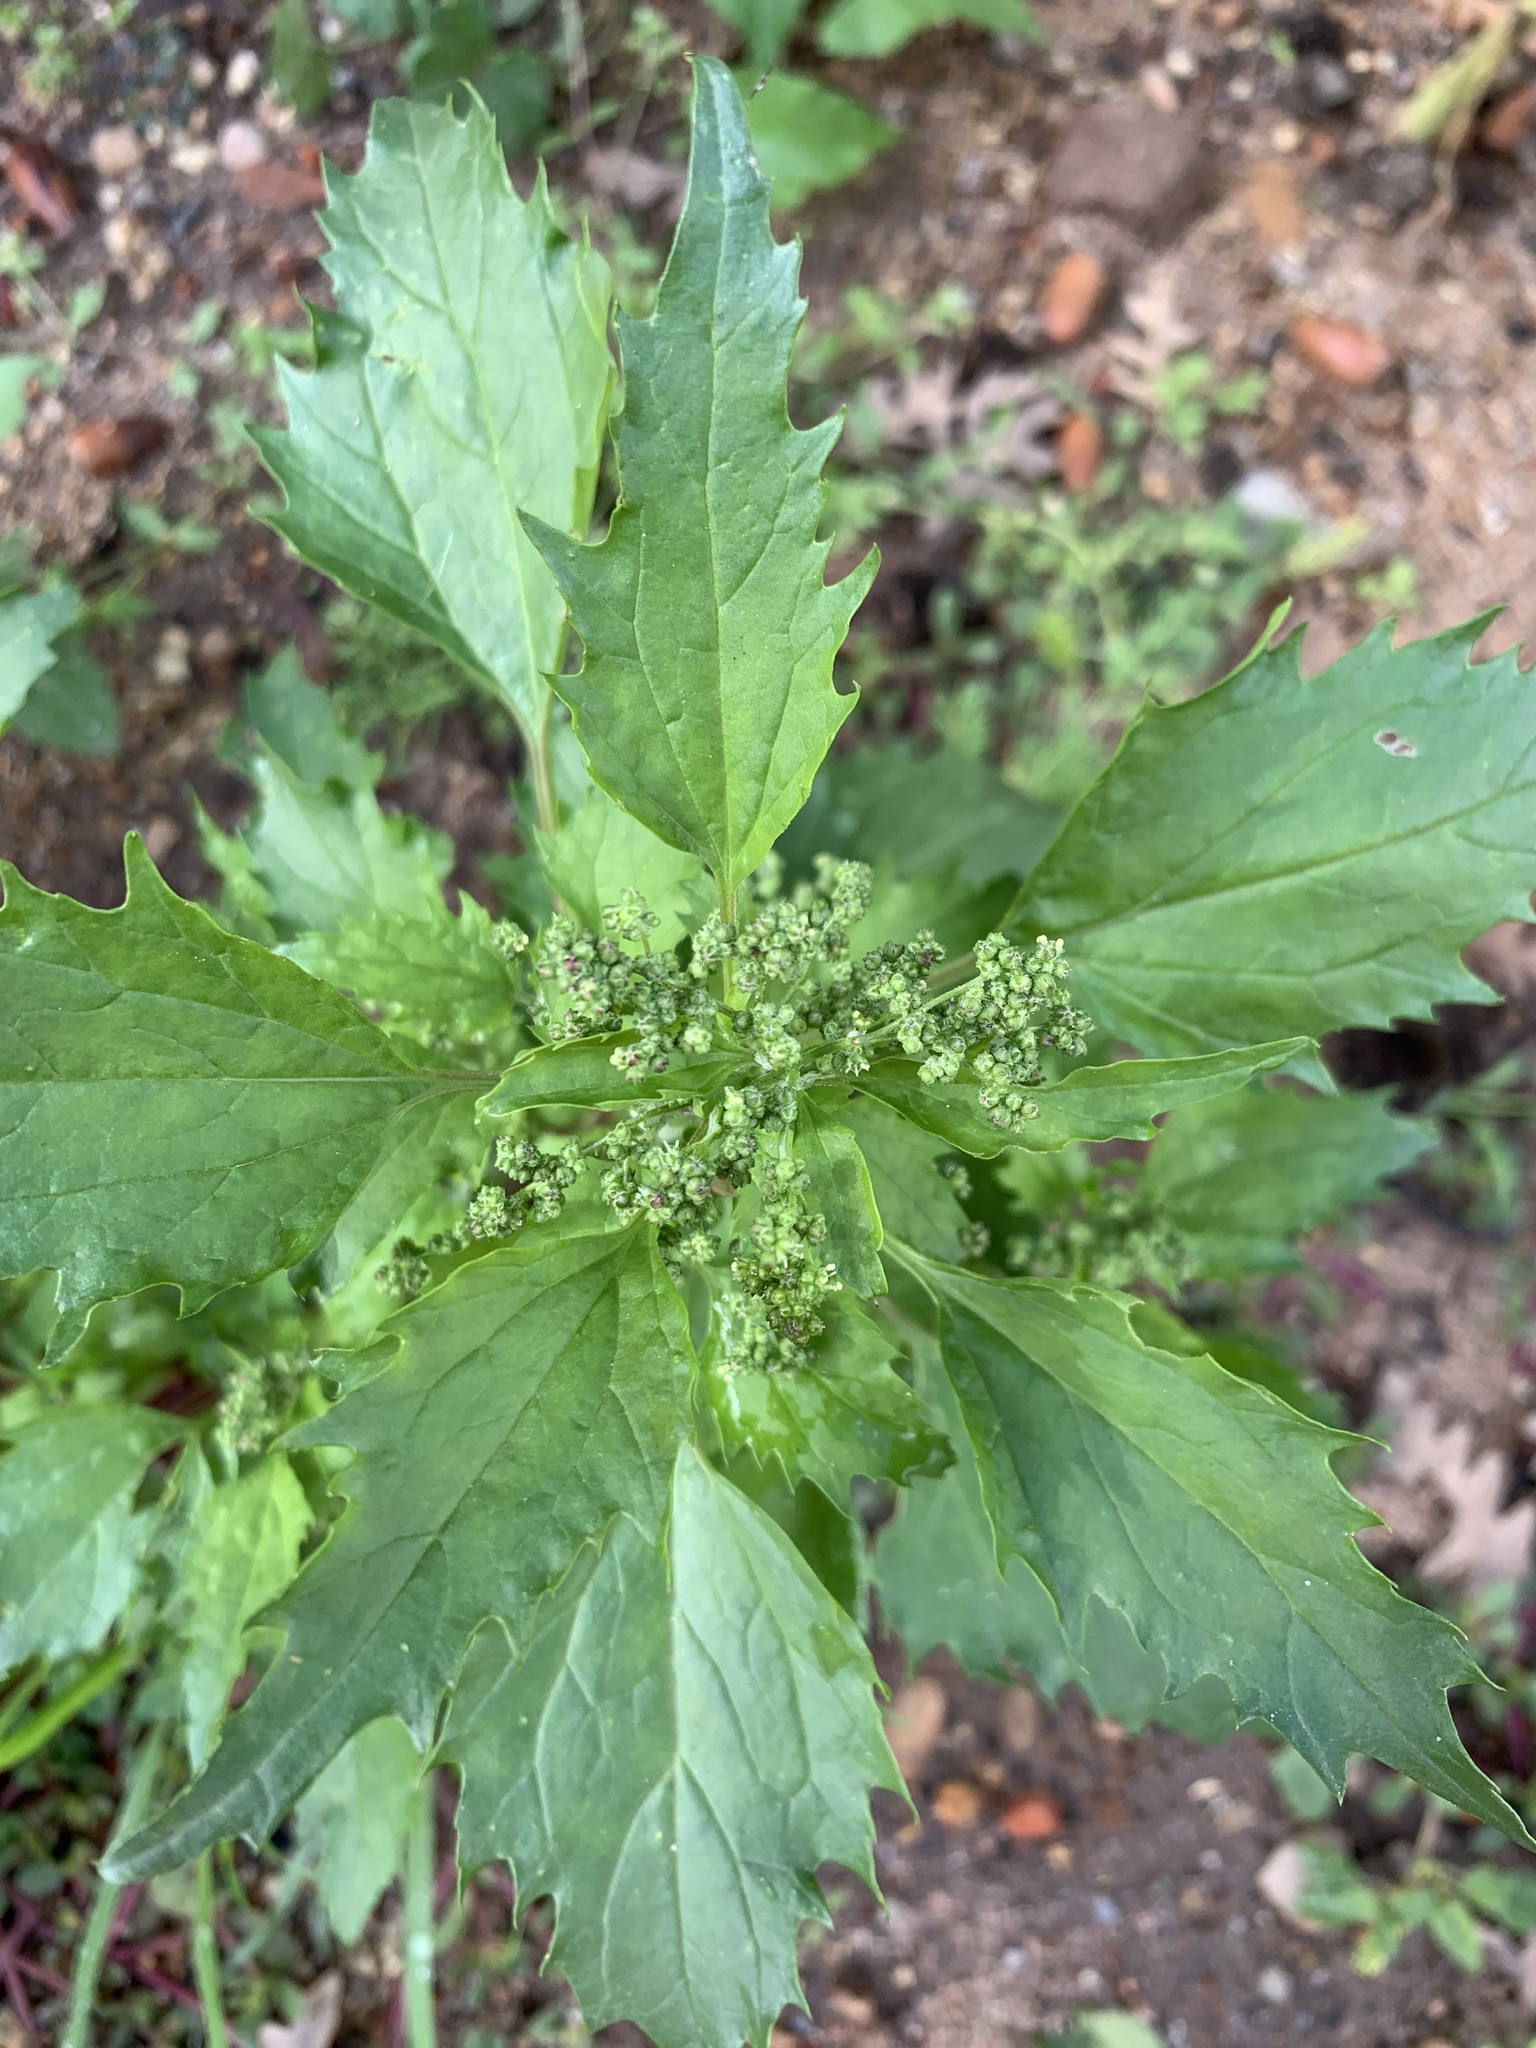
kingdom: Plantae
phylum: Tracheophyta
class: Magnoliopsida
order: Caryophyllales
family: Amaranthaceae
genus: Chenopodiastrum
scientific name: Chenopodiastrum murale
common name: Sowbane
